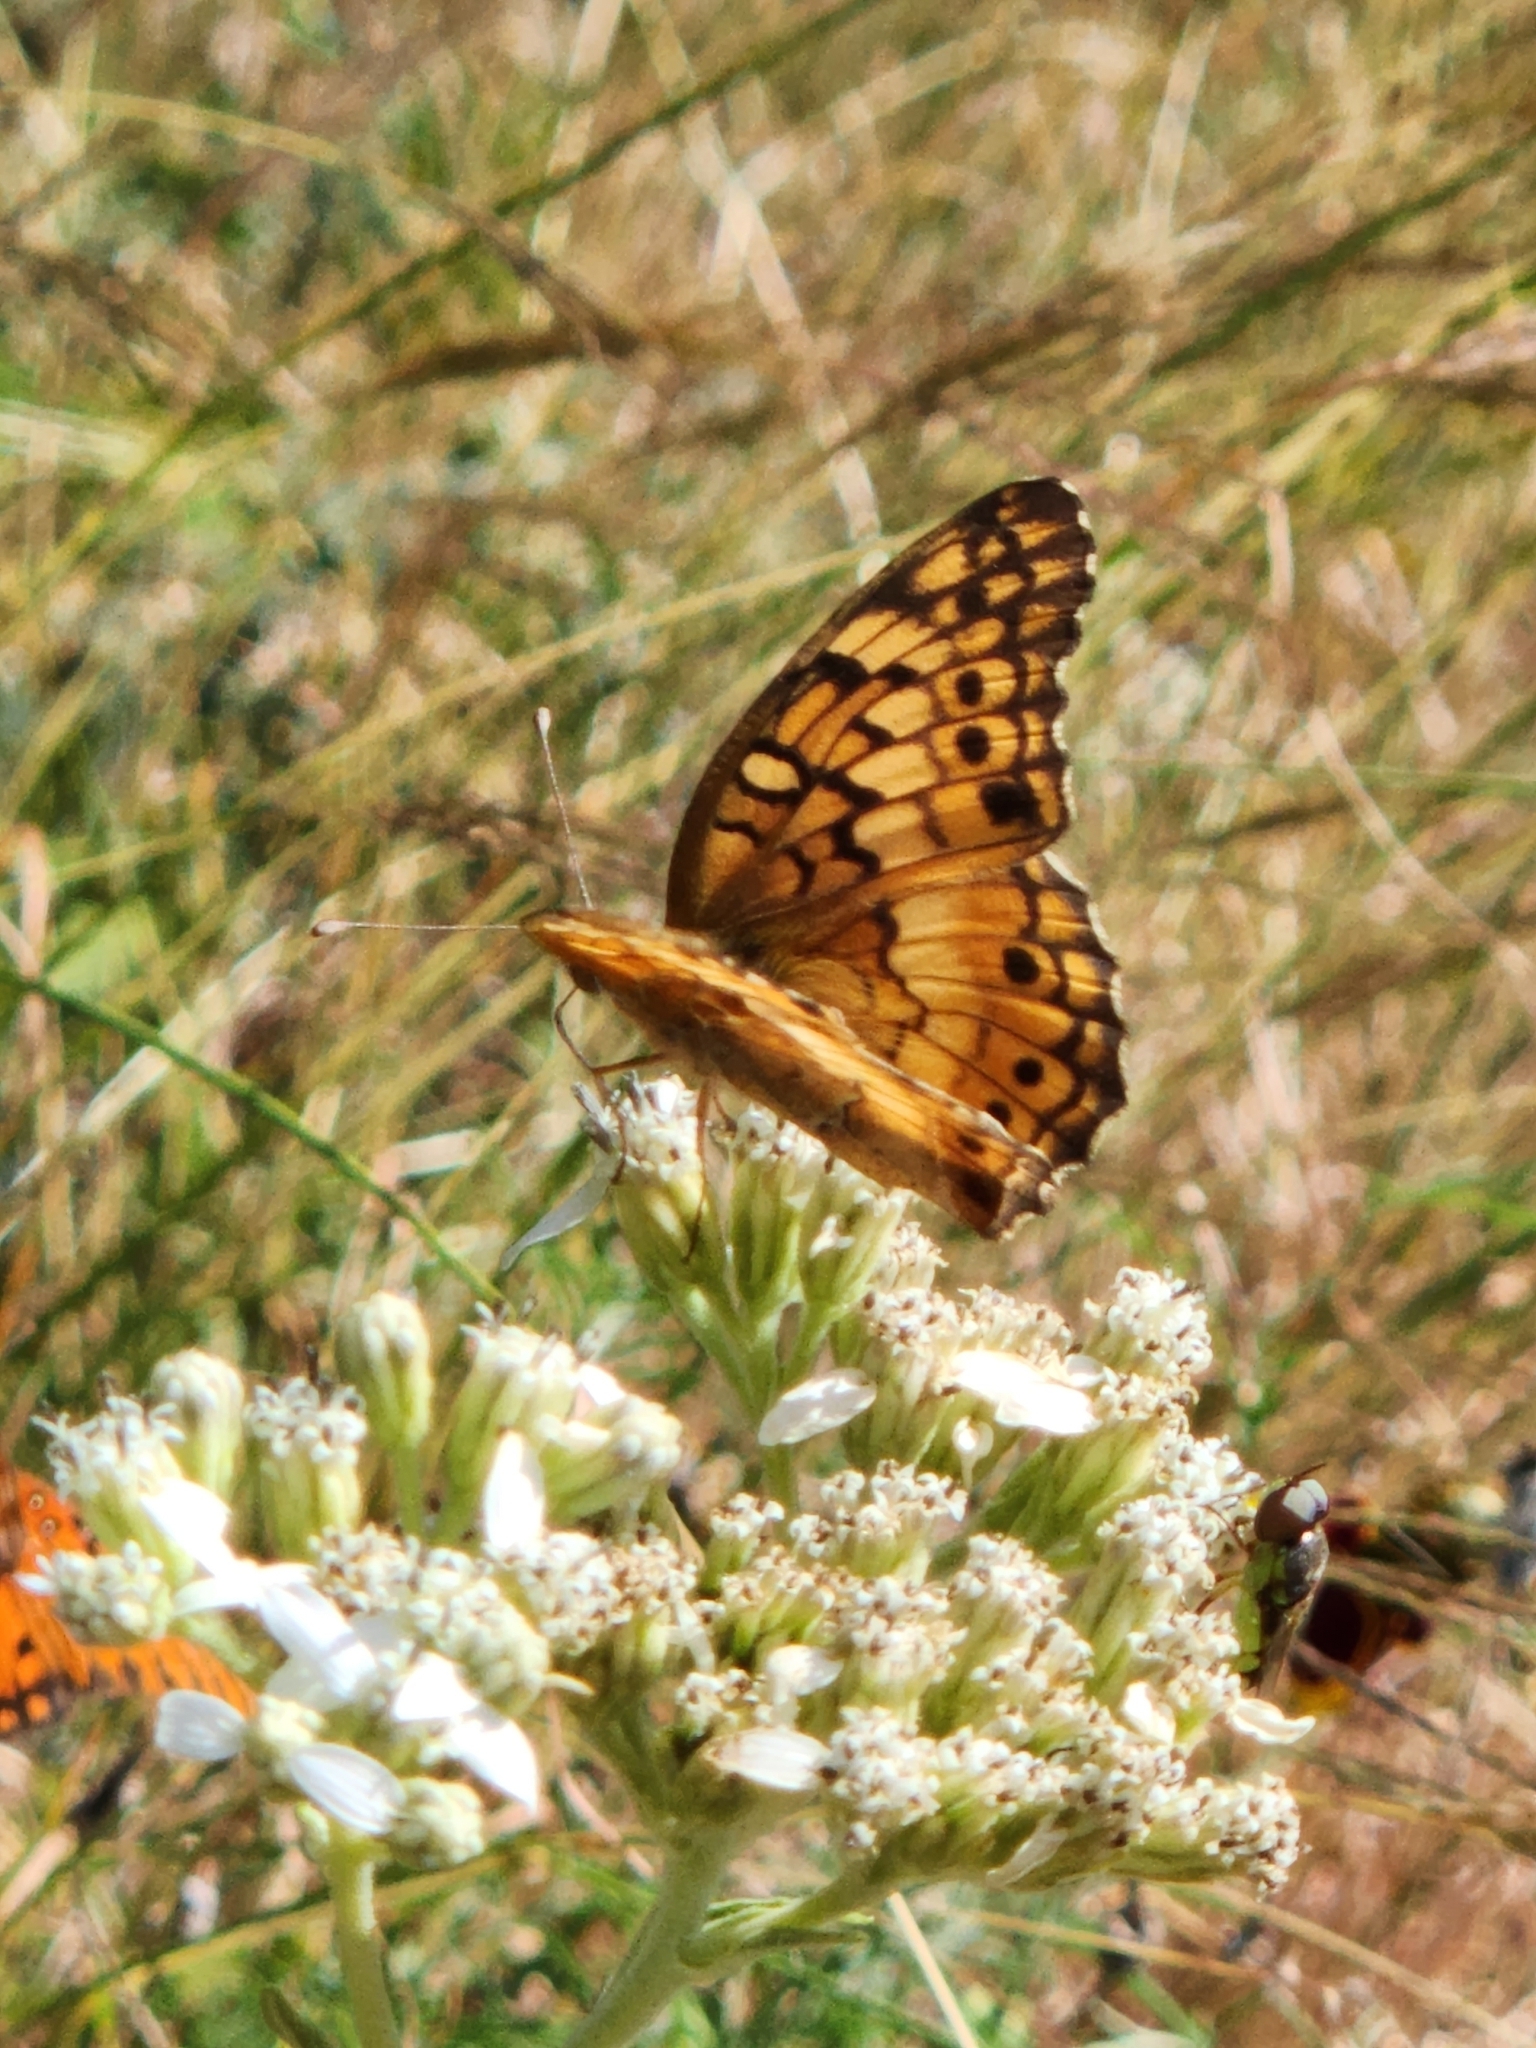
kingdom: Animalia
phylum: Arthropoda
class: Insecta
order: Lepidoptera
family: Nymphalidae
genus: Euptoieta
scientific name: Euptoieta claudia
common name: Variegated fritillary
